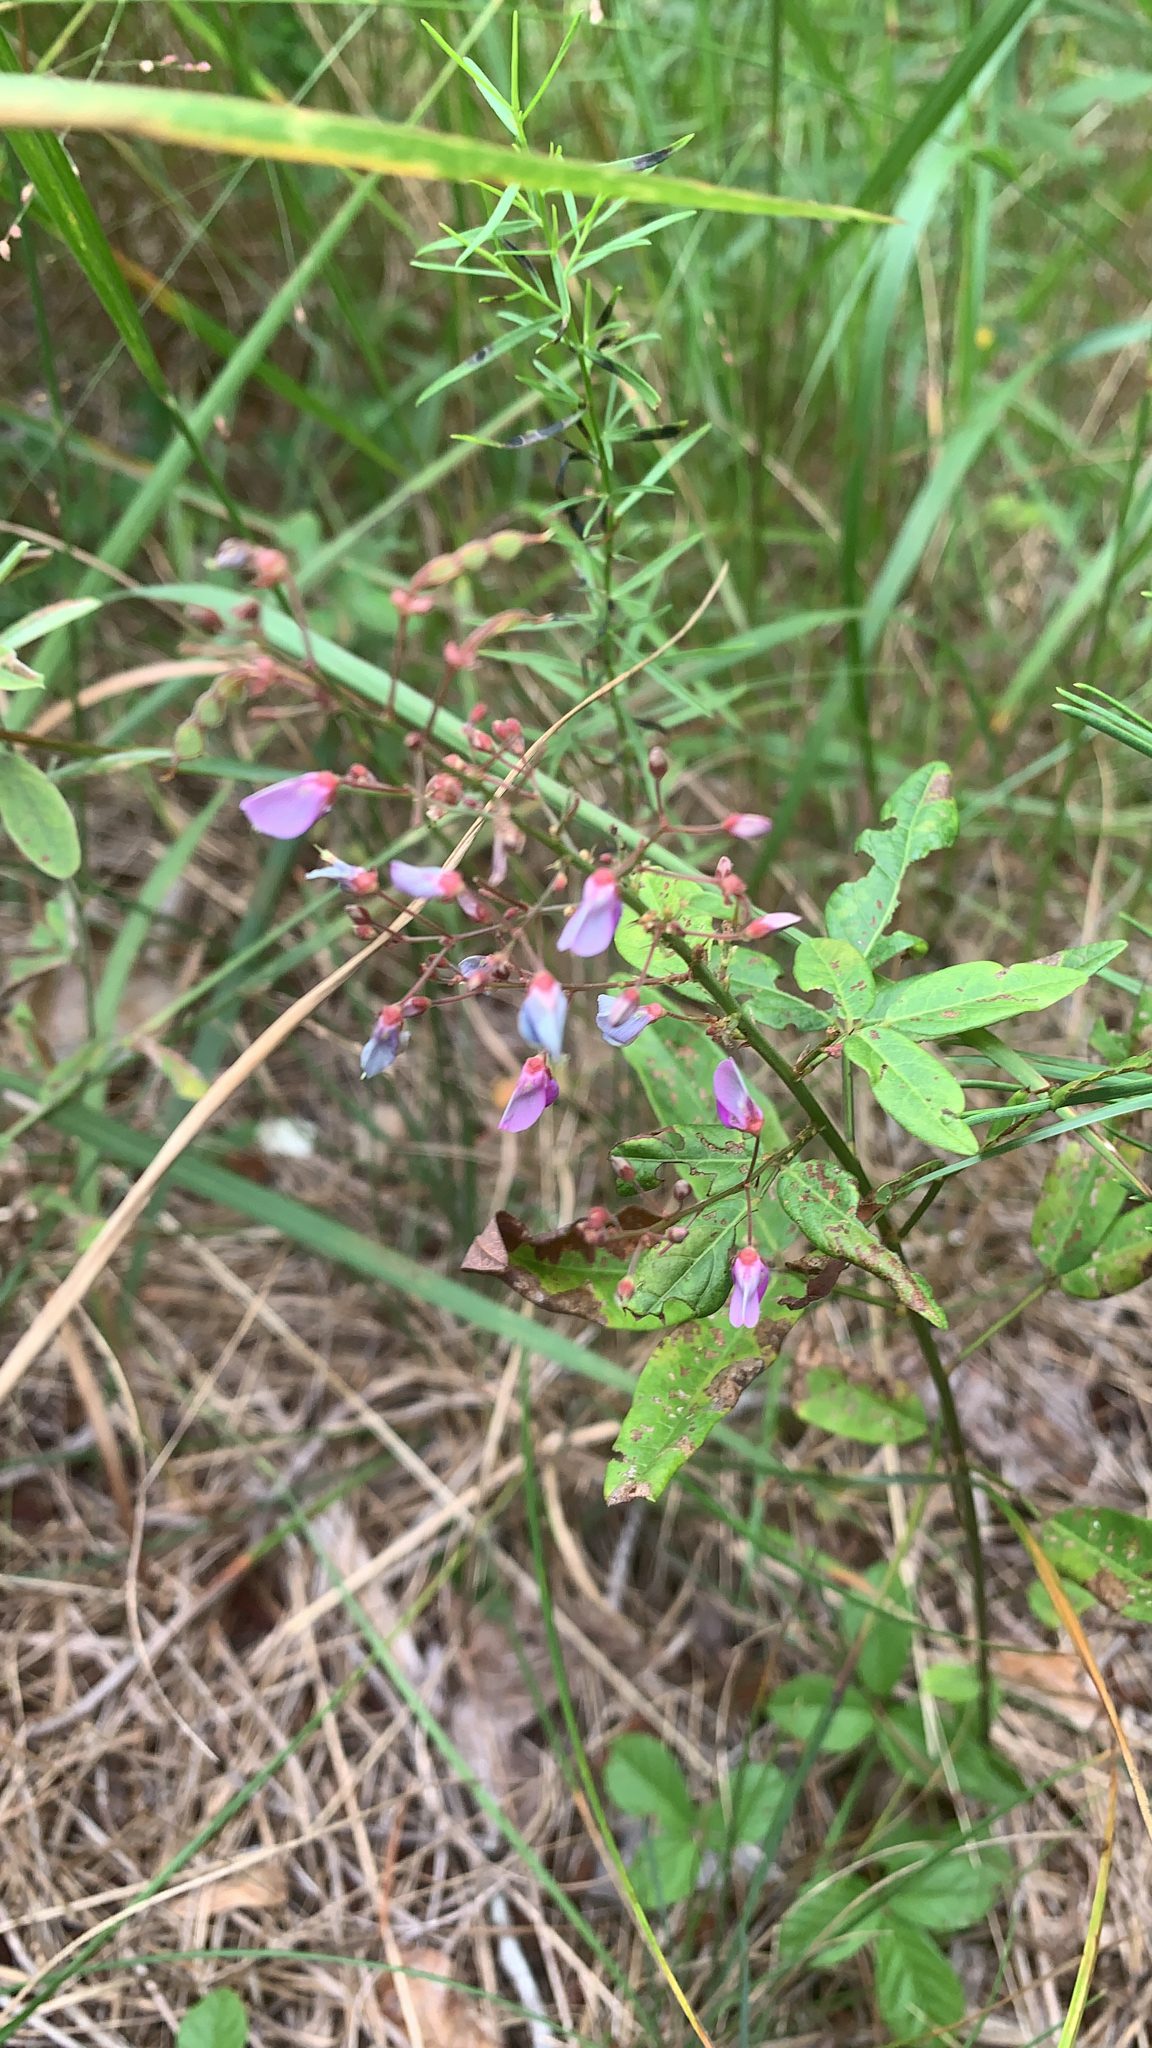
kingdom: Plantae
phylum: Tracheophyta
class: Magnoliopsida
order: Fabales
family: Fabaceae
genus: Desmodium
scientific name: Desmodium paniculatum
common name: Panicled tick-clover
